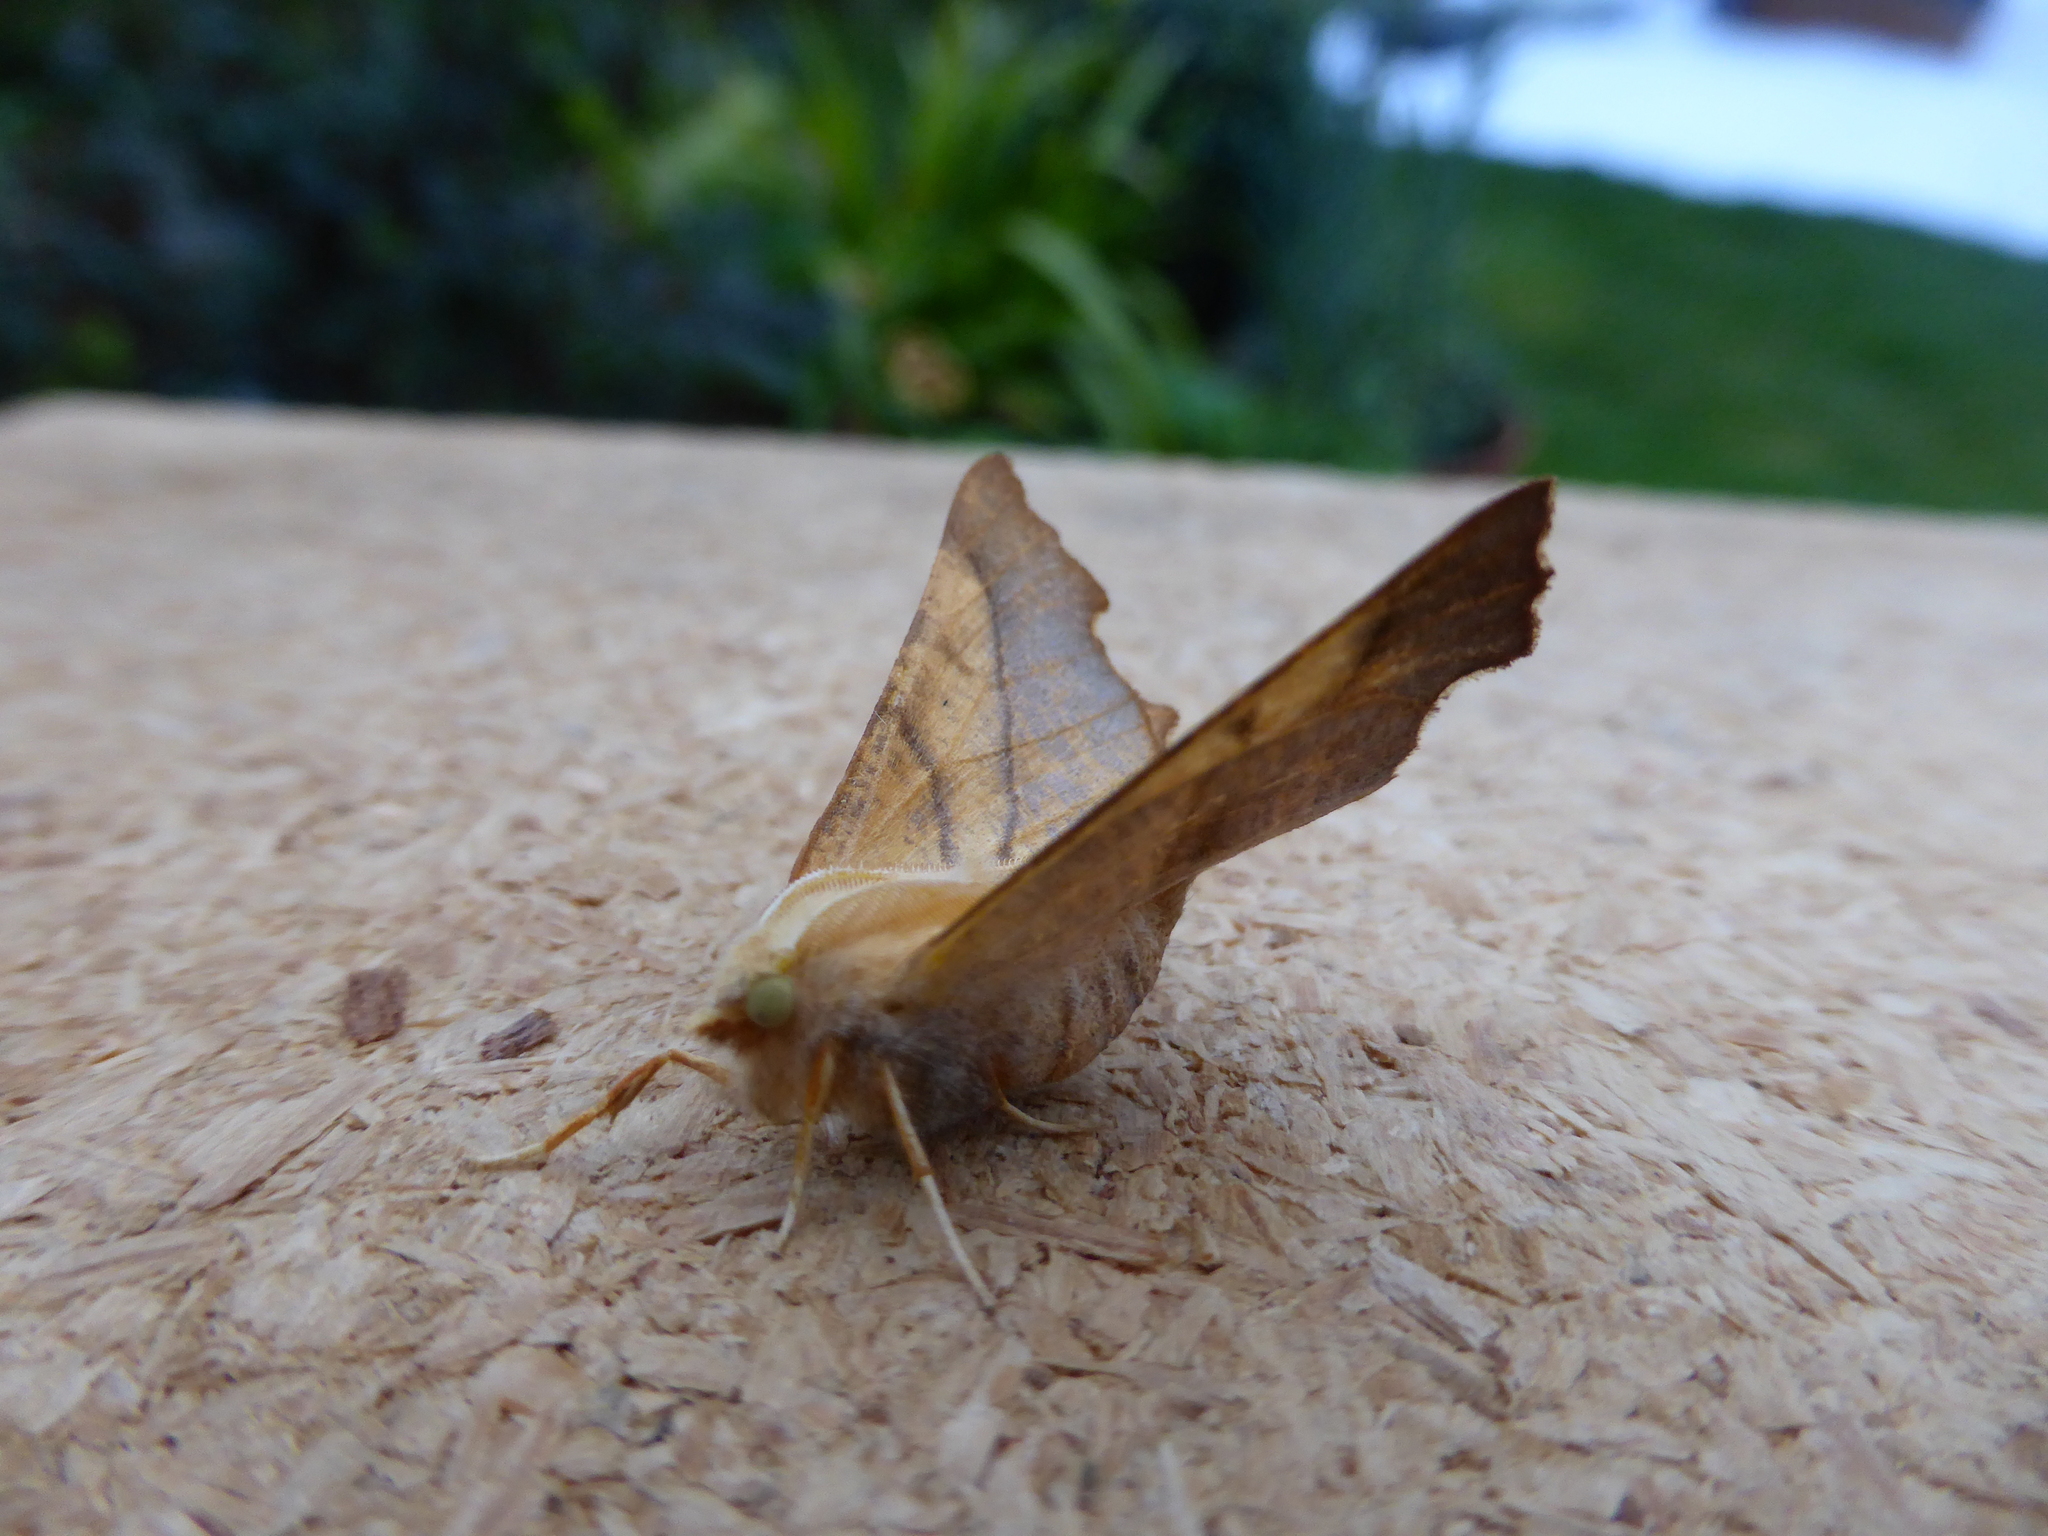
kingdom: Animalia
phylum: Arthropoda
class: Insecta
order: Lepidoptera
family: Geometridae
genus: Ennomos
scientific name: Ennomos fuscantaria
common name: Dusky thorn
